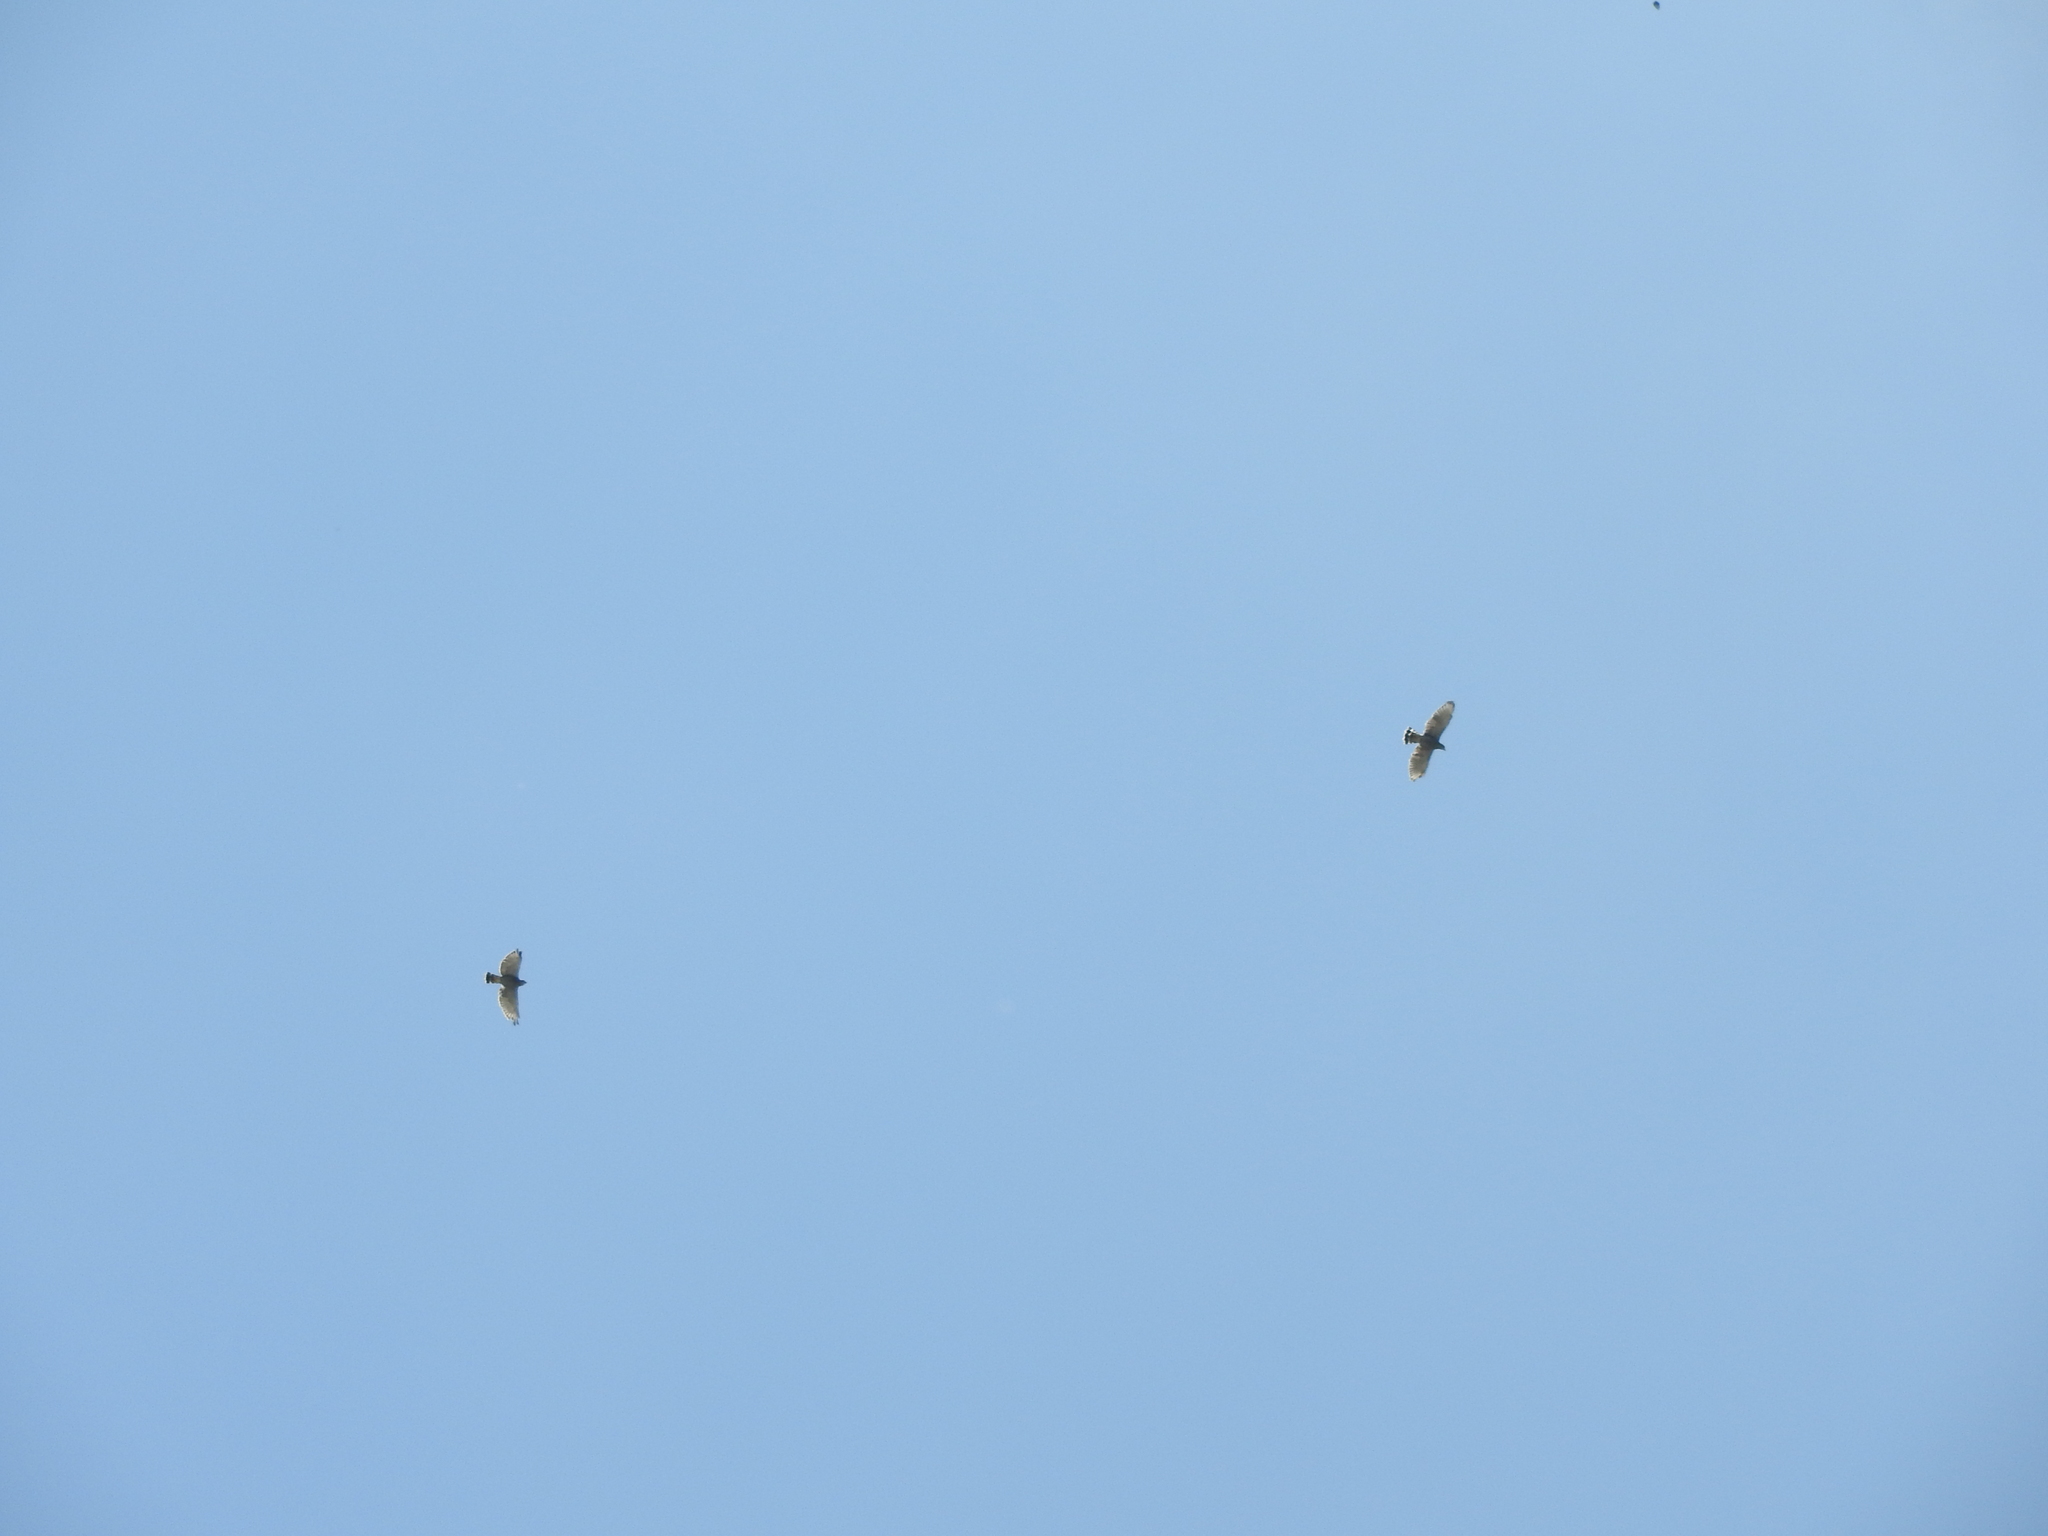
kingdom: Animalia
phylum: Chordata
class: Aves
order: Accipitriformes
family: Accipitridae
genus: Buteo
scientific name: Buteo nitidus
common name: Grey-lined hawk
